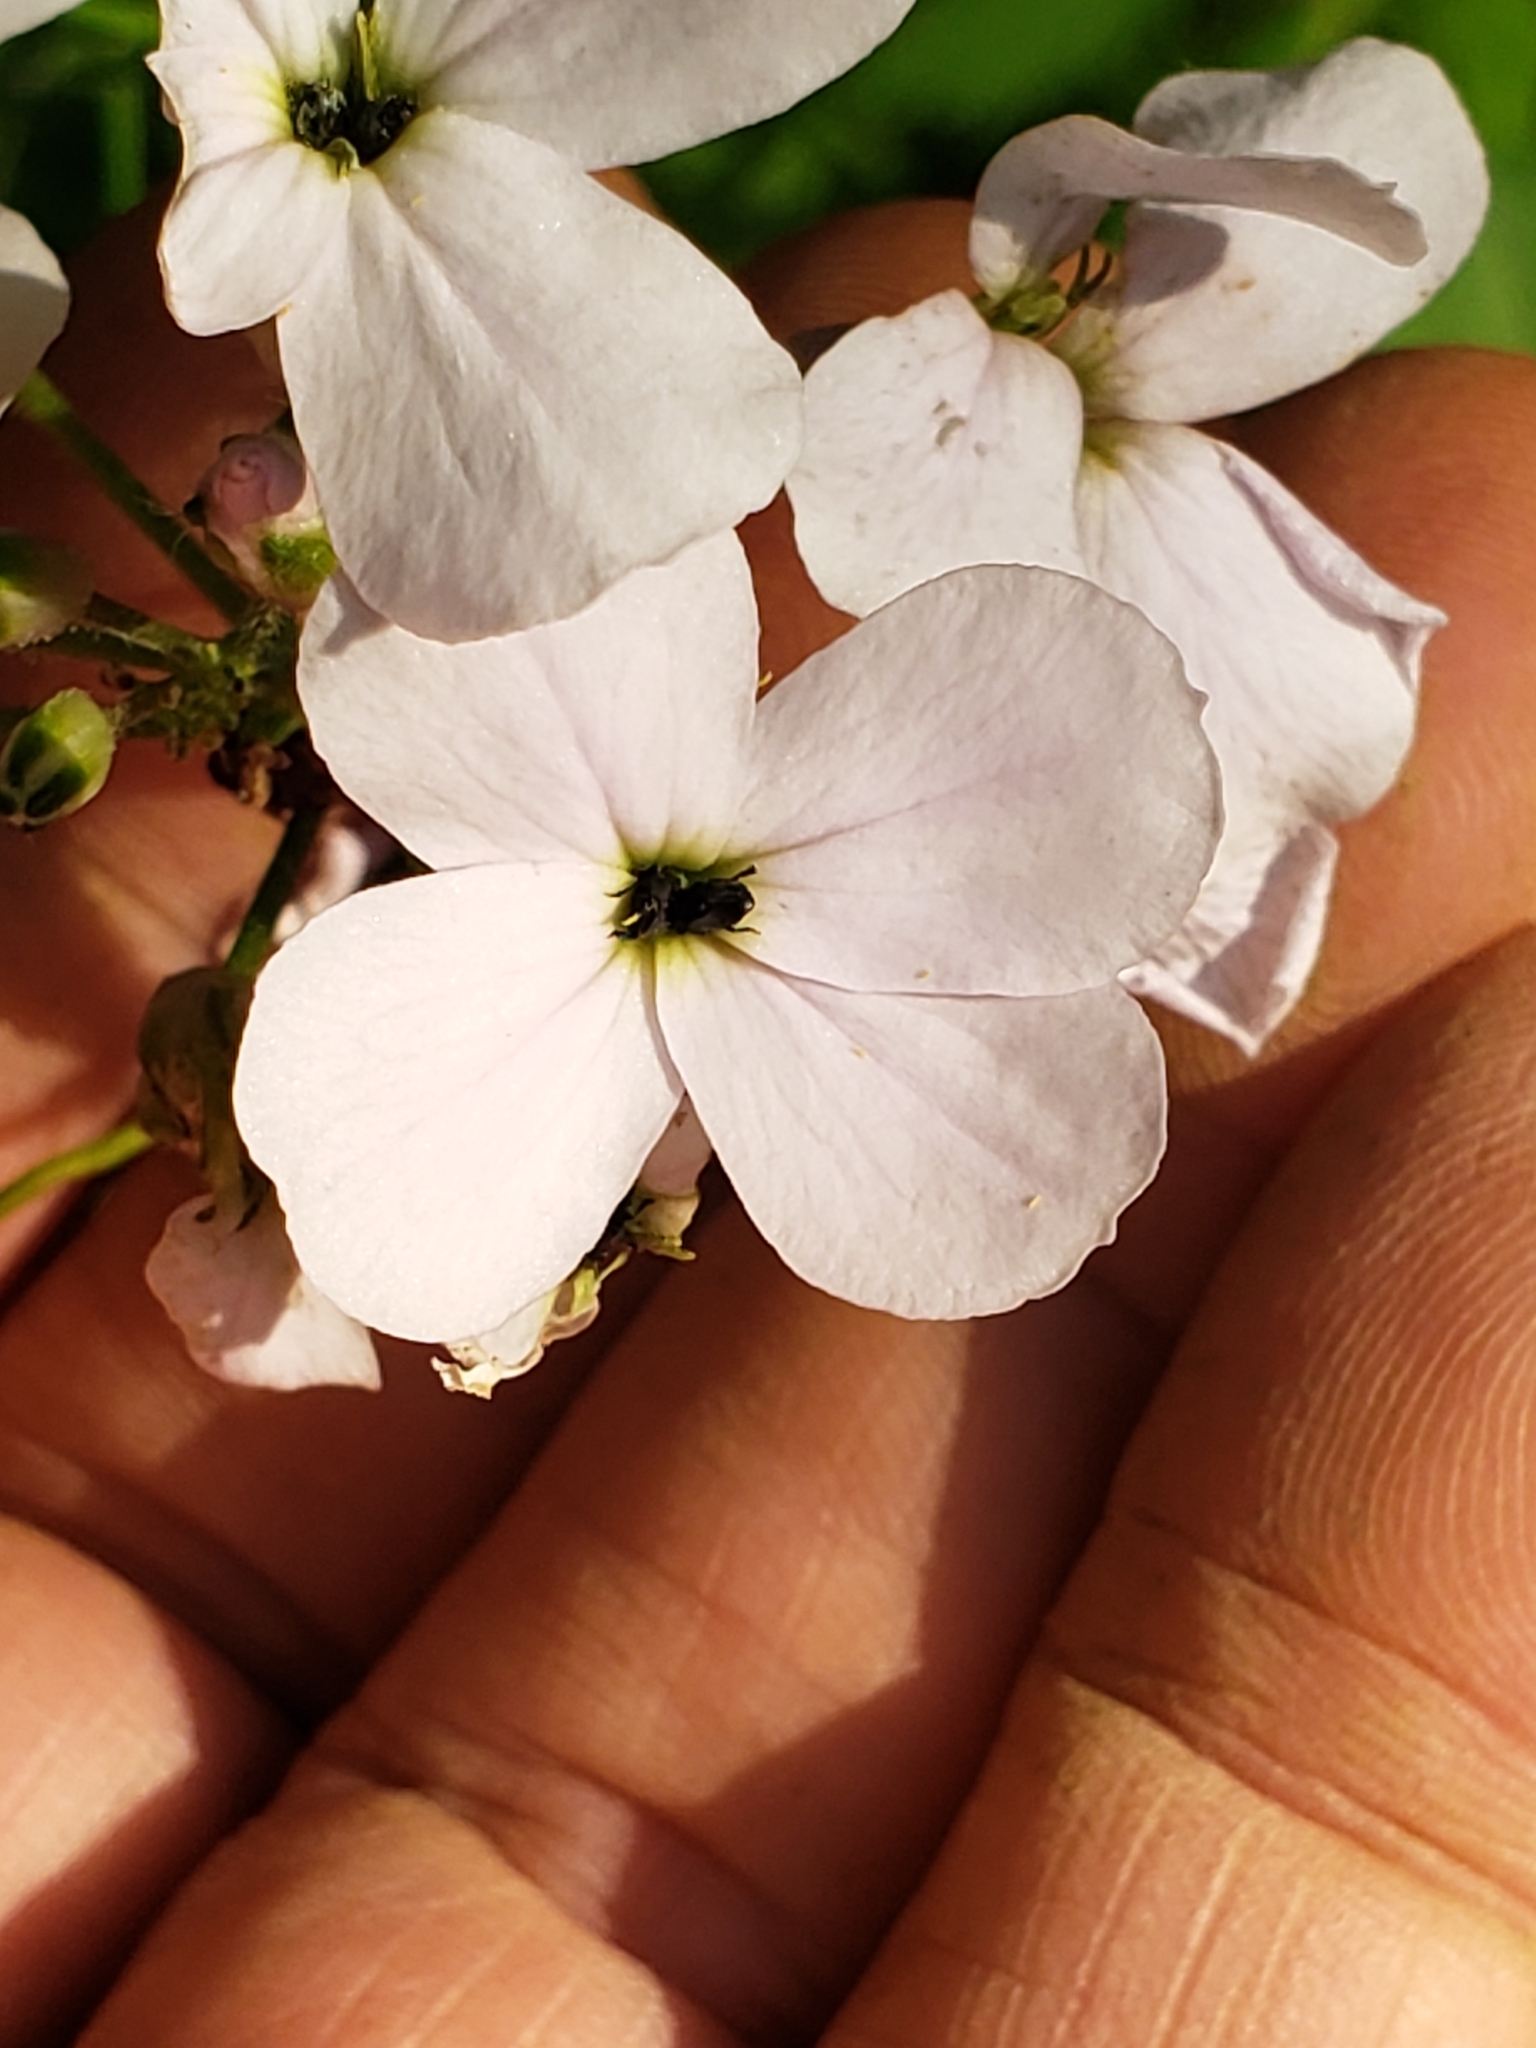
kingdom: Plantae
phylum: Tracheophyta
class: Magnoliopsida
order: Brassicales
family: Brassicaceae
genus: Hesperis
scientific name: Hesperis matronalis
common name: Dame's-violet
